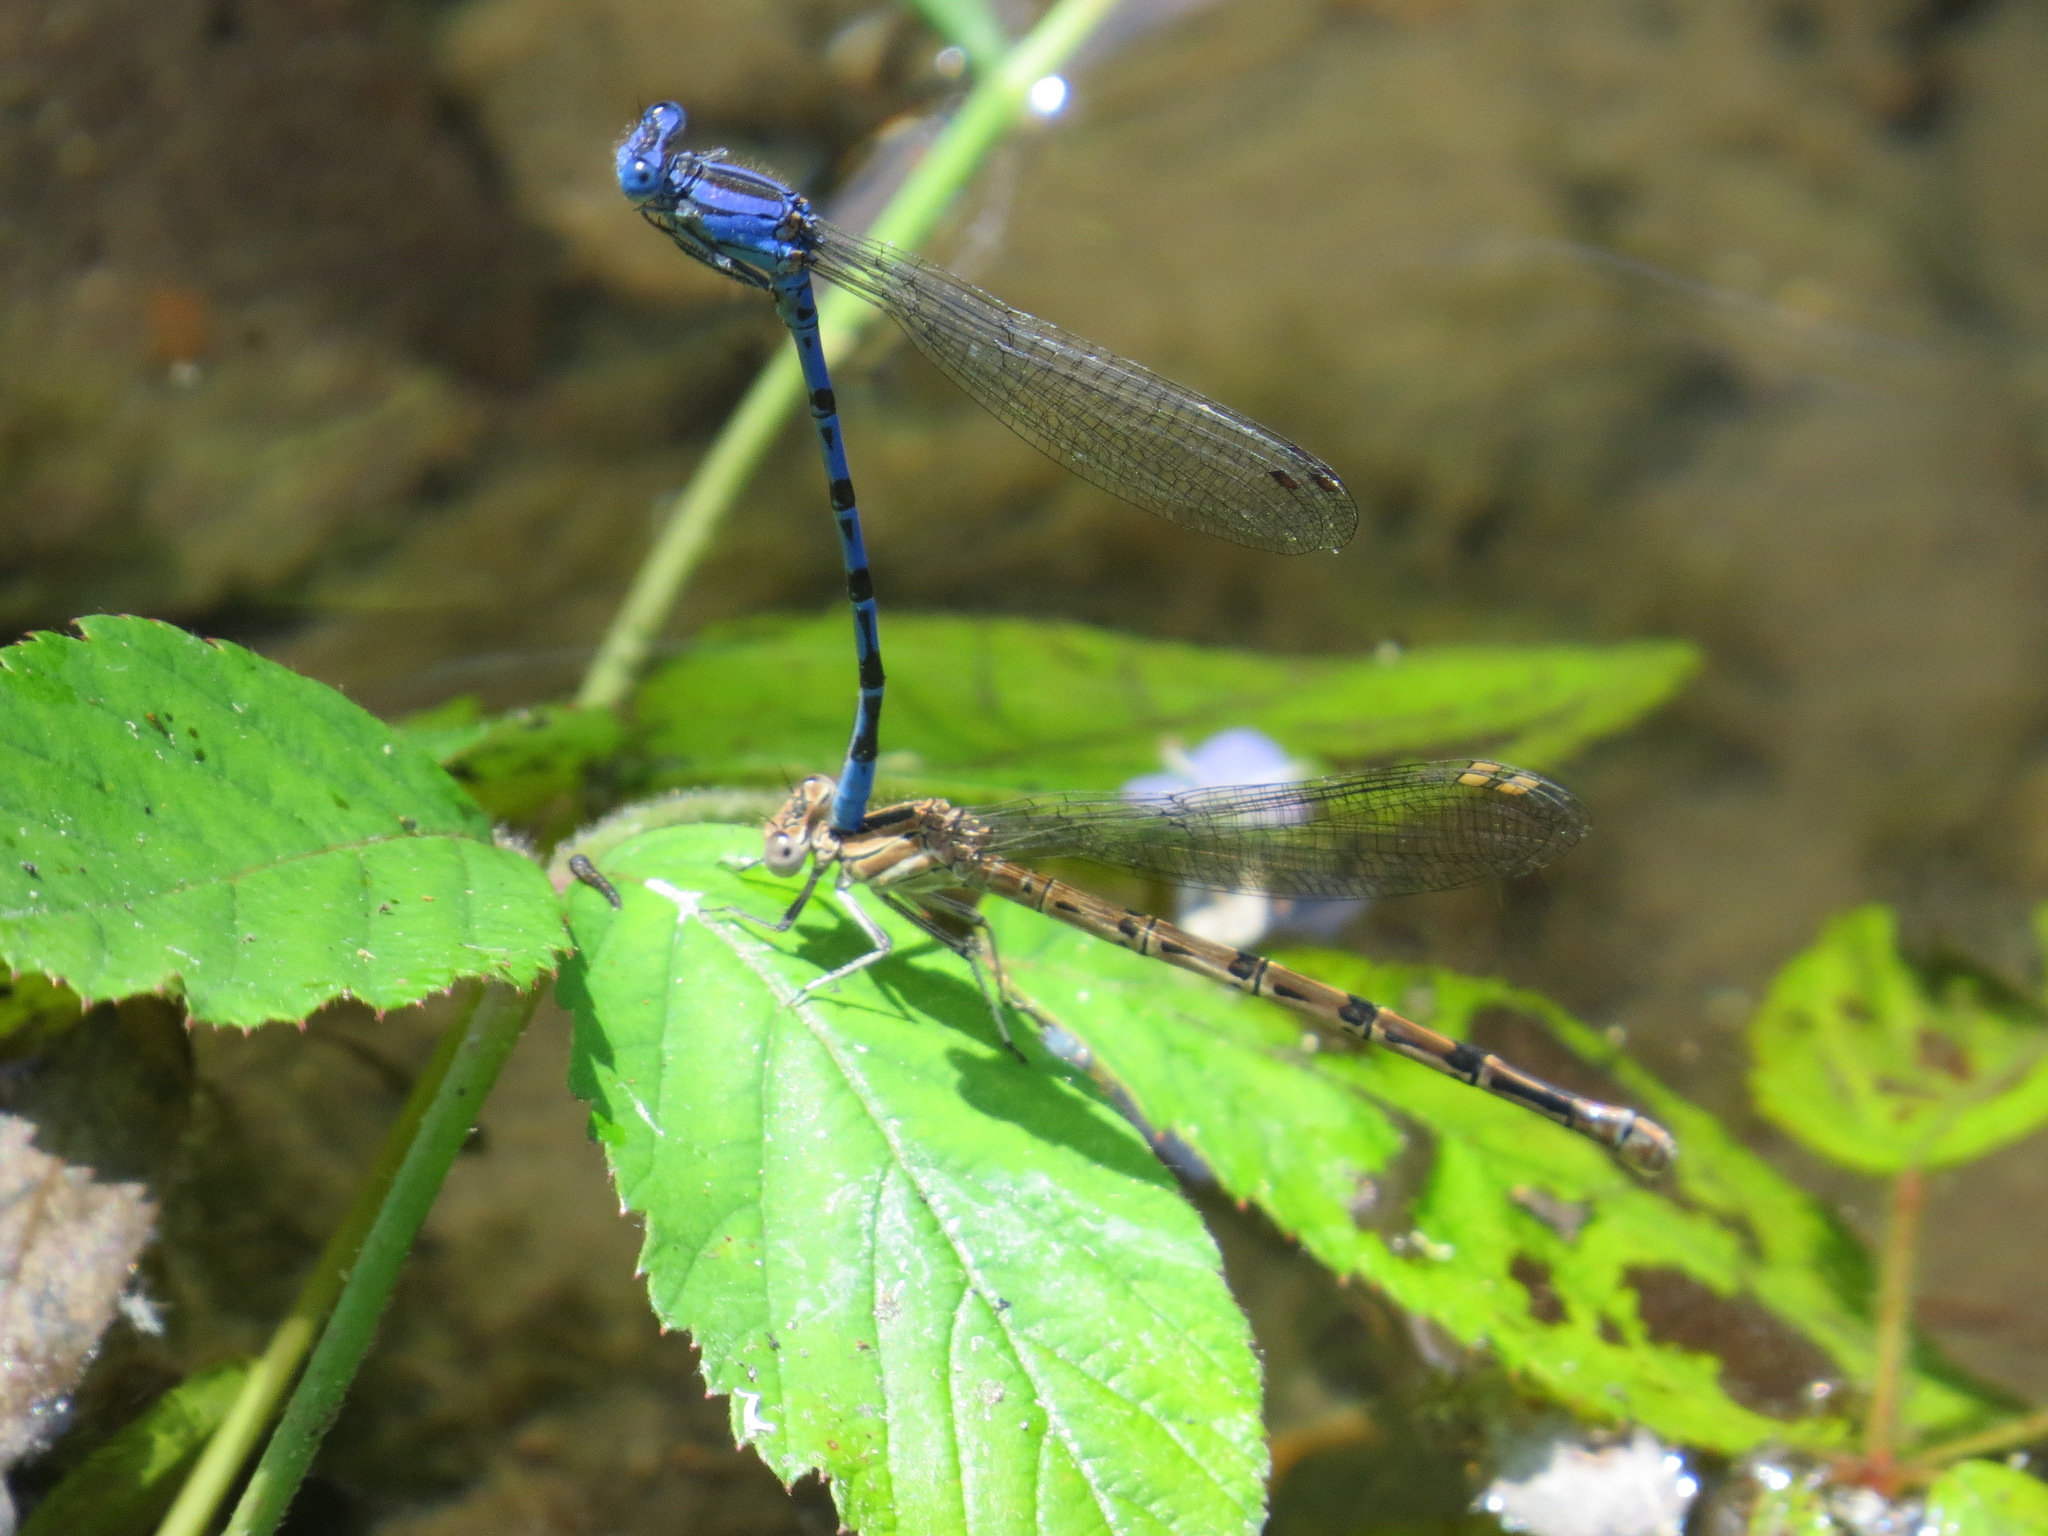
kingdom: Animalia
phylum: Arthropoda
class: Insecta
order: Odonata
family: Coenagrionidae
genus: Argia
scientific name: Argia vivida
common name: Vivid dancer
